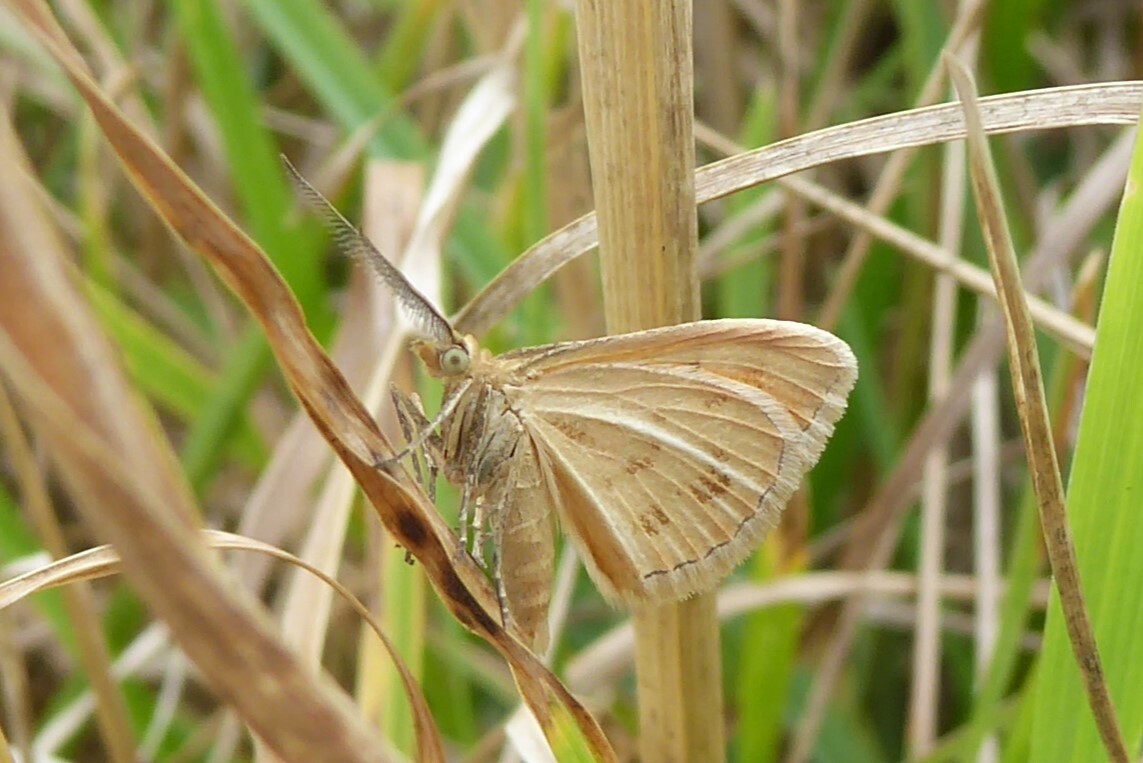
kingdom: Animalia
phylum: Arthropoda
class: Insecta
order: Lepidoptera
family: Geometridae
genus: Asaphodes
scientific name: Asaphodes abrogata
